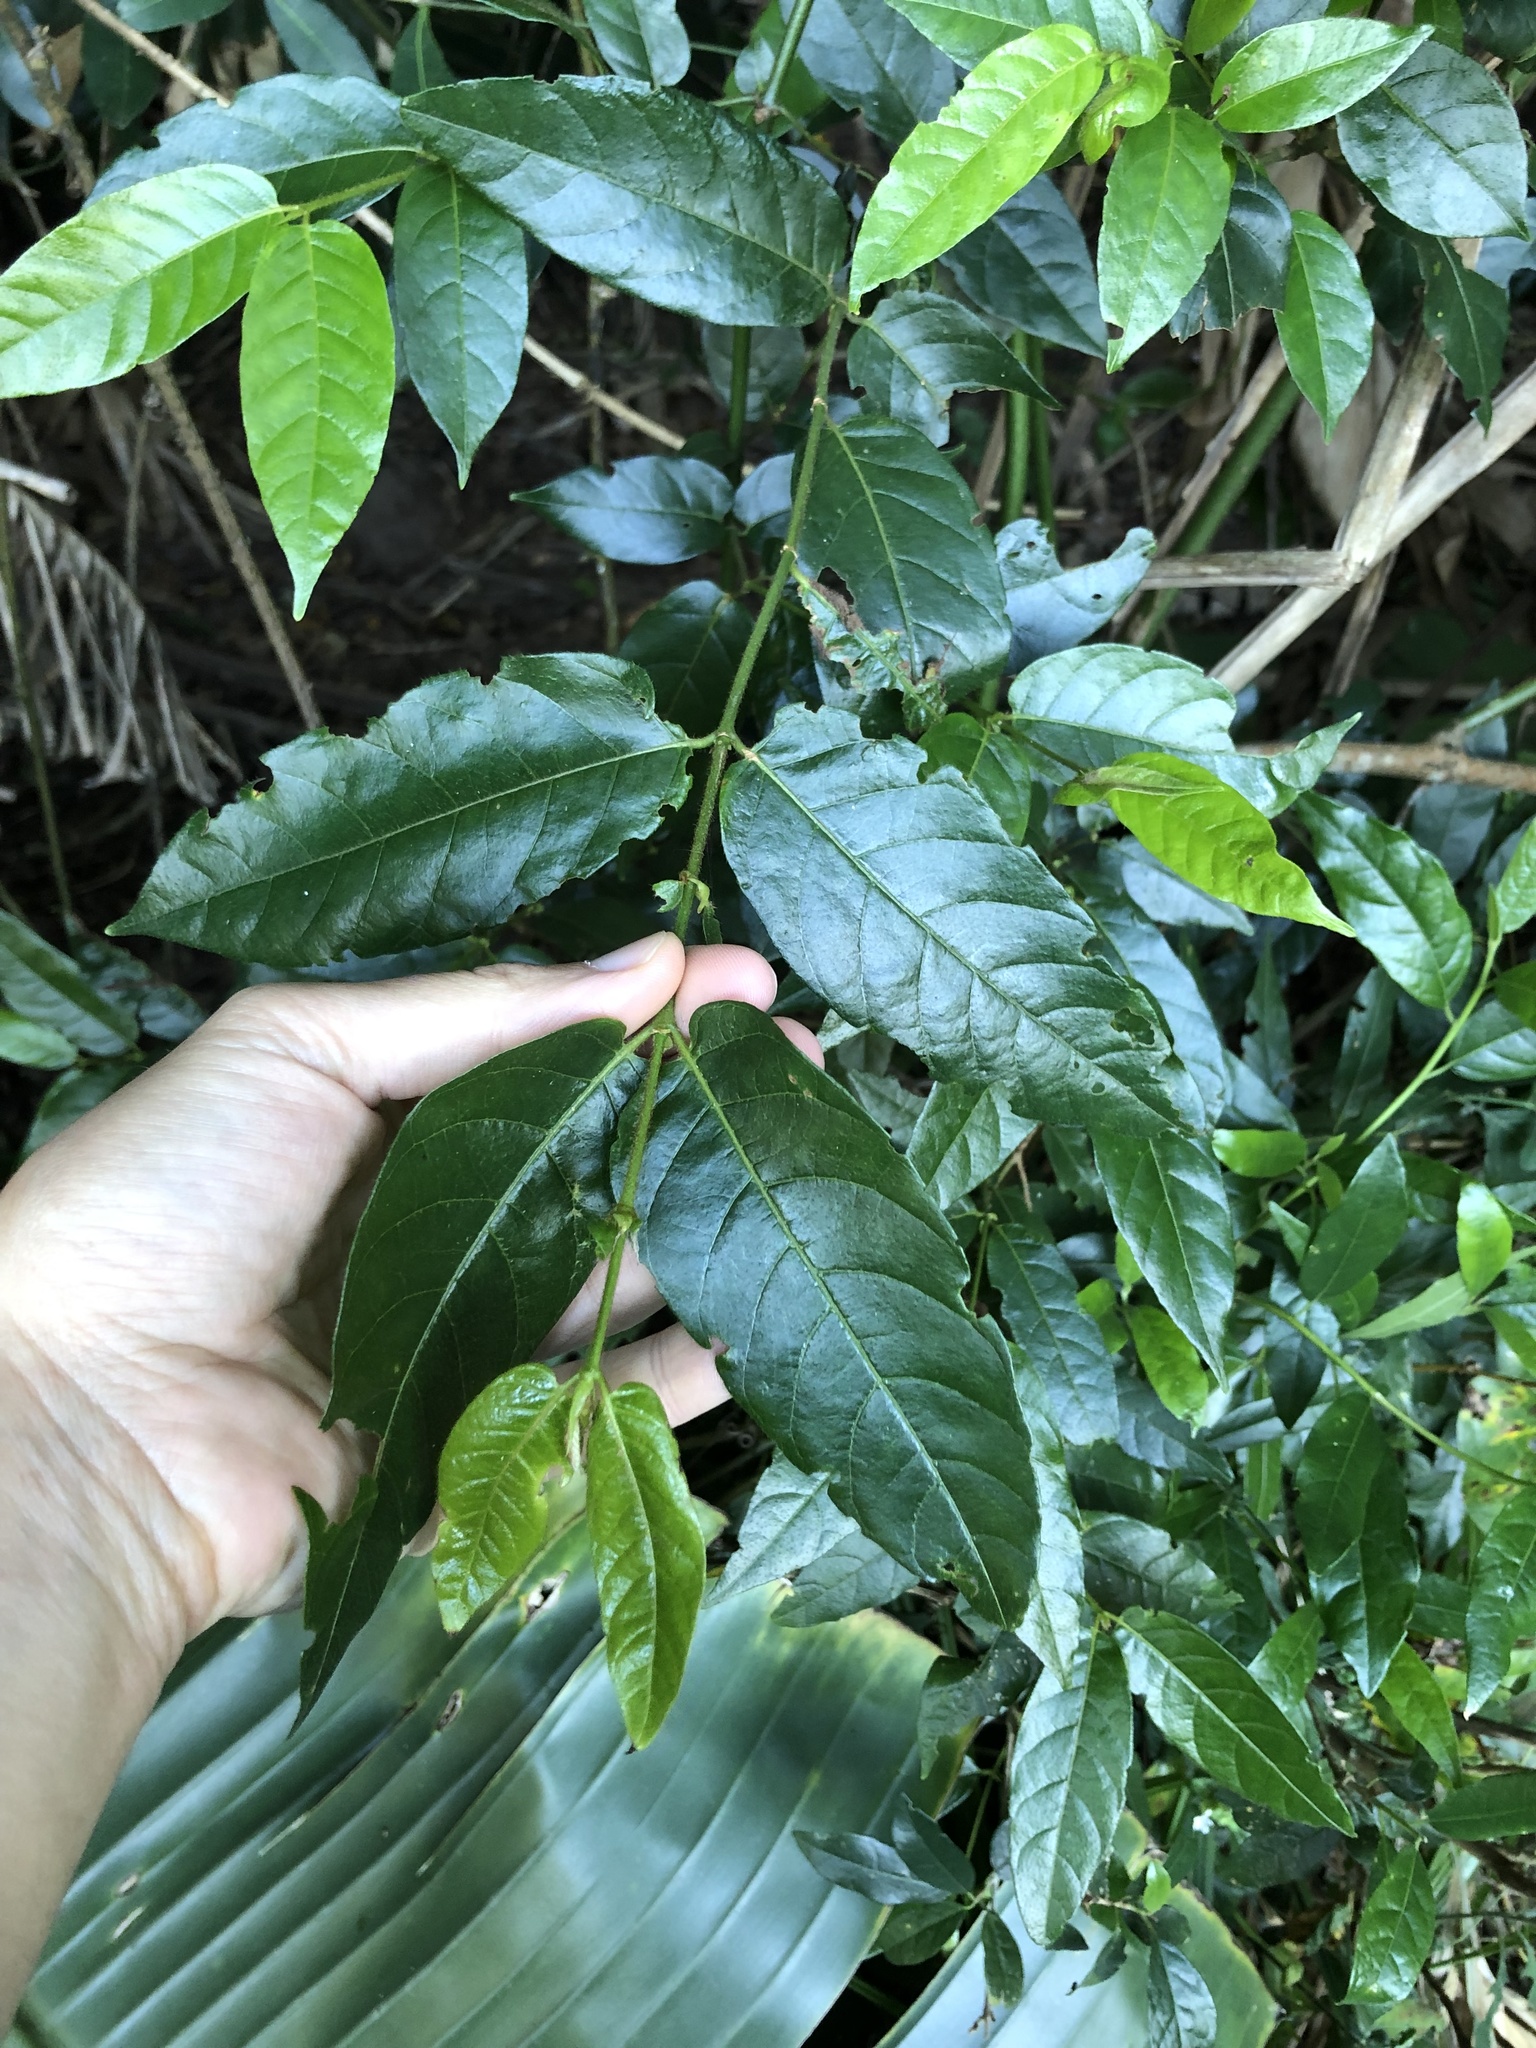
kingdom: Plantae
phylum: Tracheophyta
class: Magnoliopsida
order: Gentianales
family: Rubiaceae
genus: Keetia
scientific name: Keetia gueinzii
